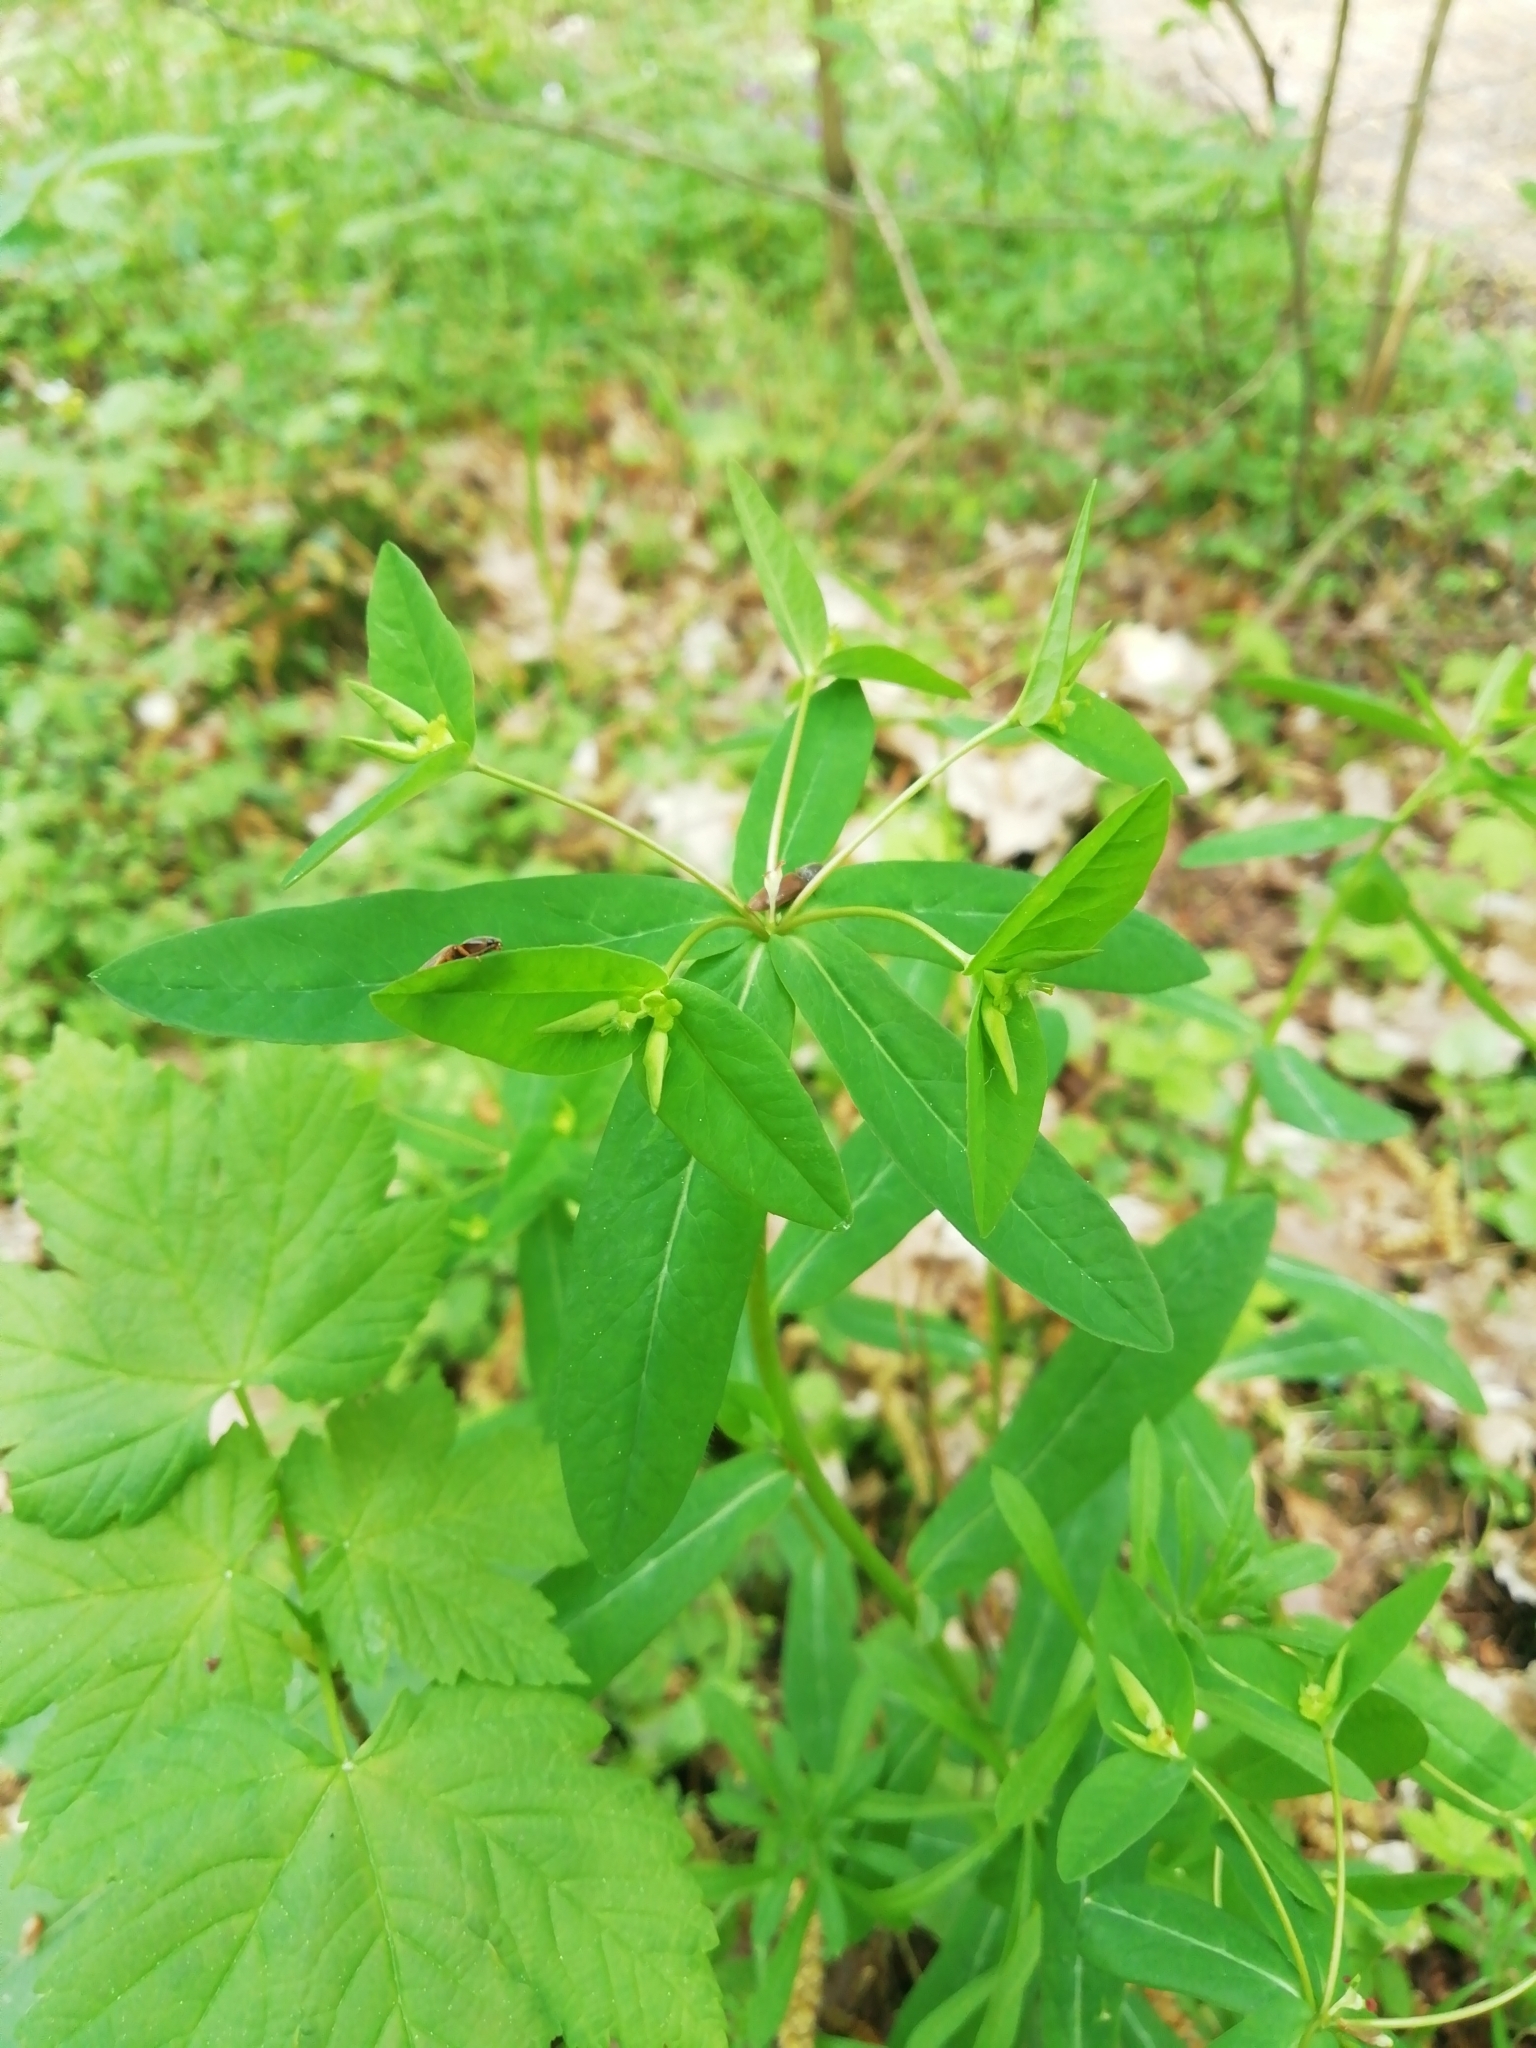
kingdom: Plantae
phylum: Tracheophyta
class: Magnoliopsida
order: Malpighiales
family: Euphorbiaceae
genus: Euphorbia
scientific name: Euphorbia dulcis
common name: Sweet spurge
